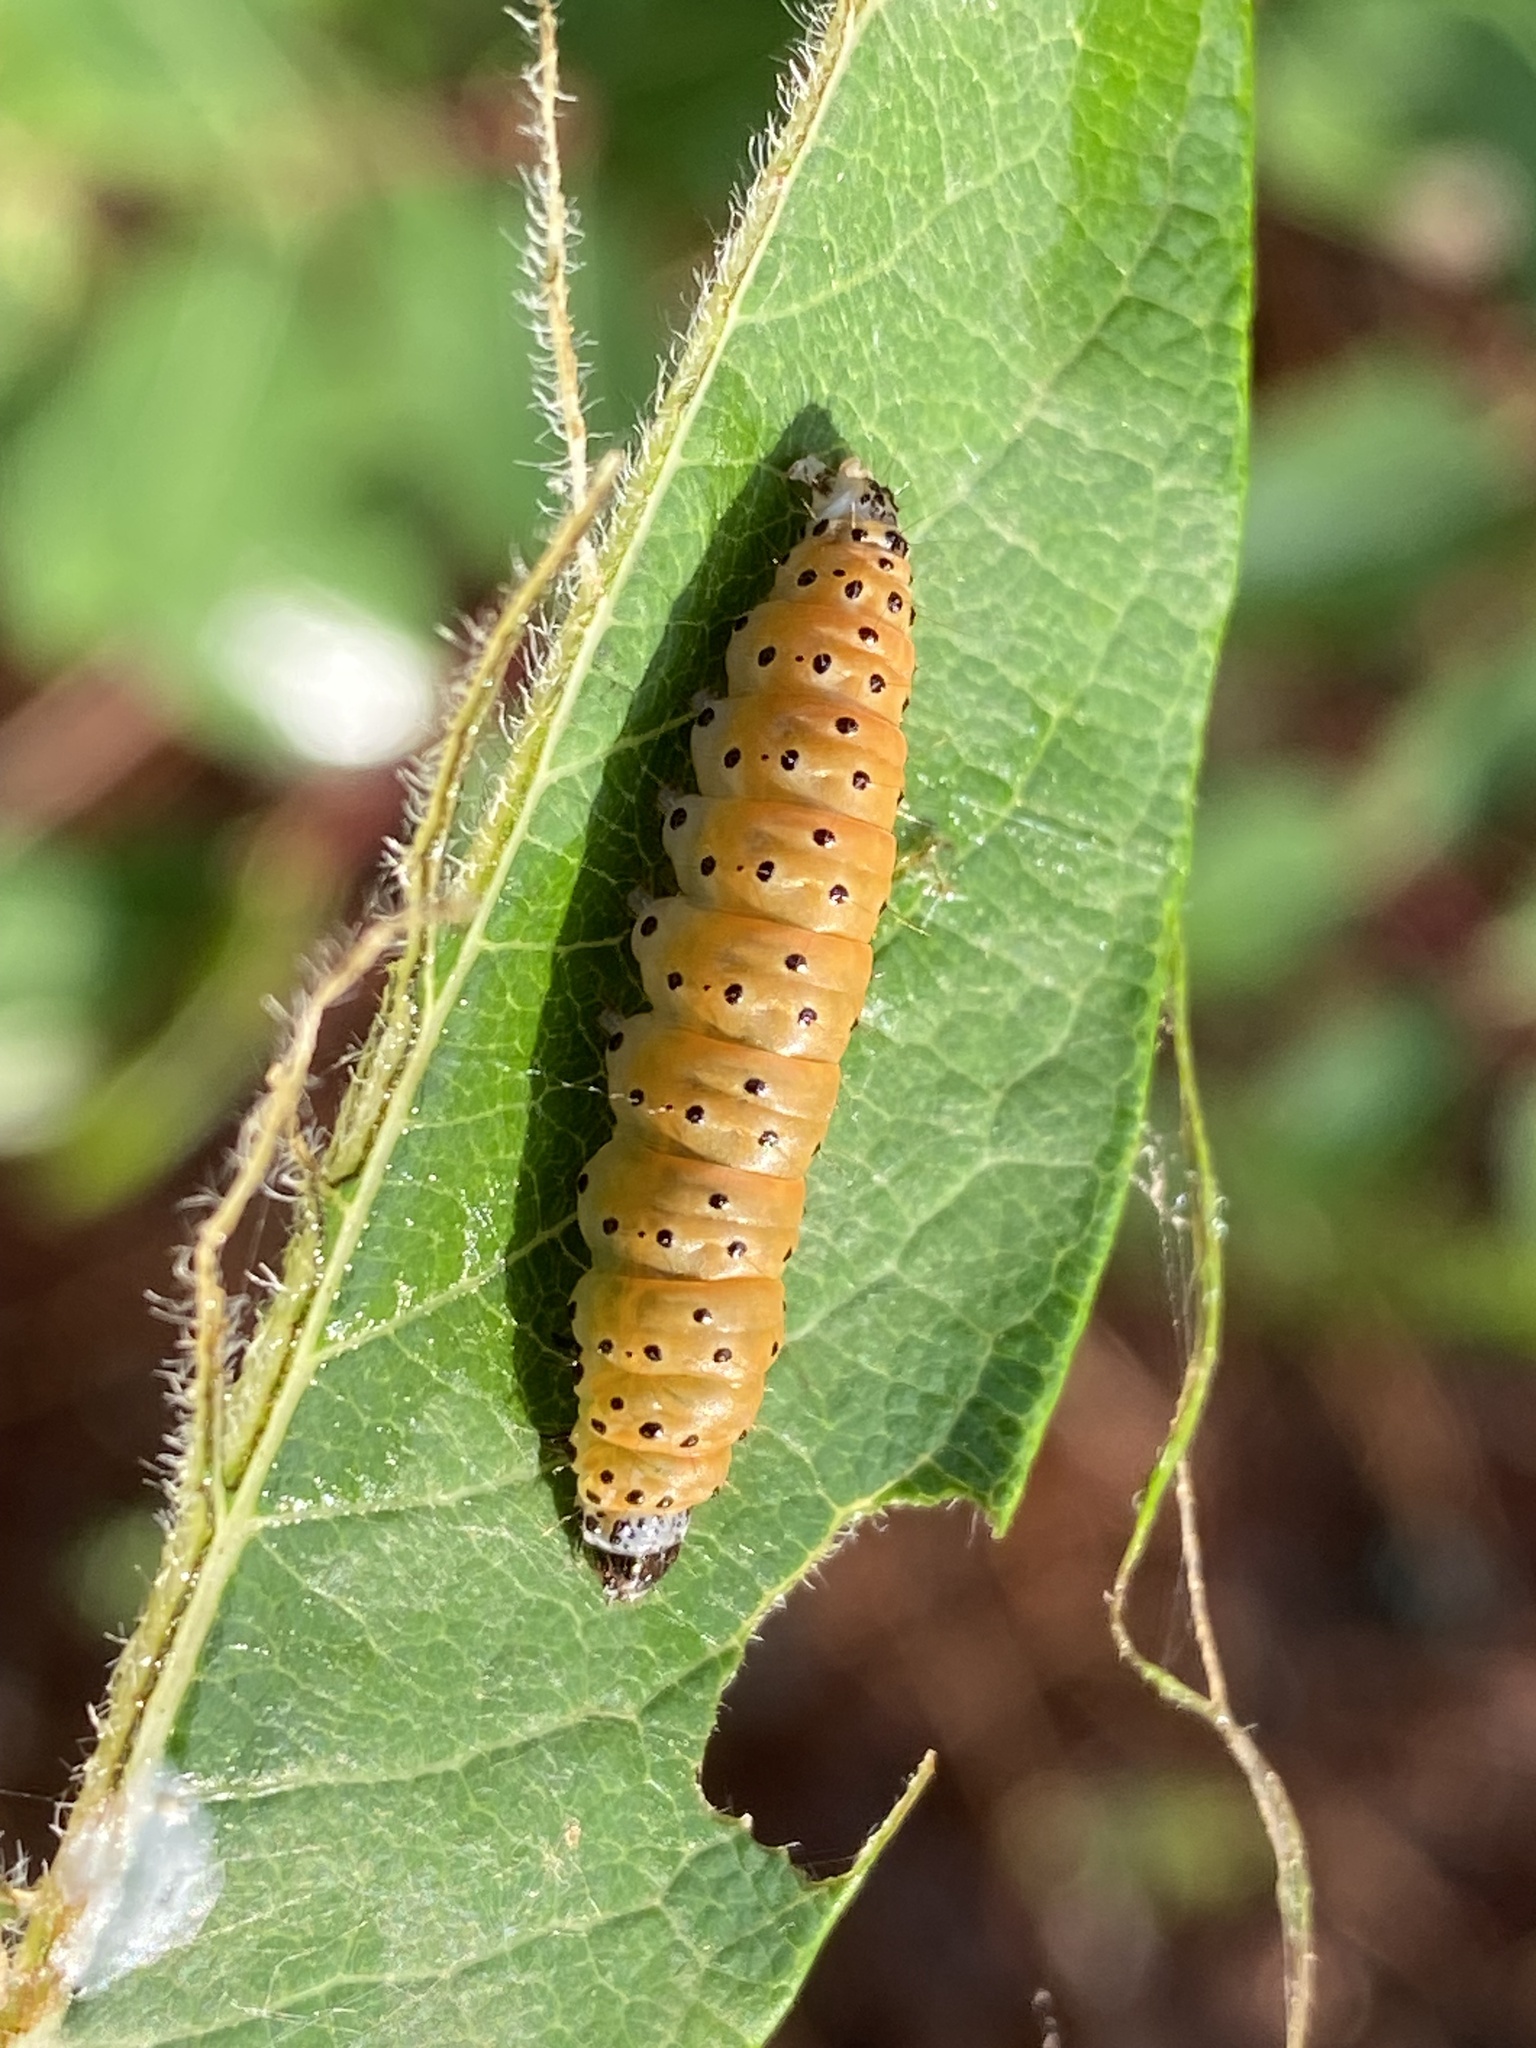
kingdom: Animalia
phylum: Arthropoda
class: Insecta
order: Lepidoptera
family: Crambidae
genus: Saucrobotys
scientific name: Saucrobotys futilalis
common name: Dogbane saucrobotys moth
